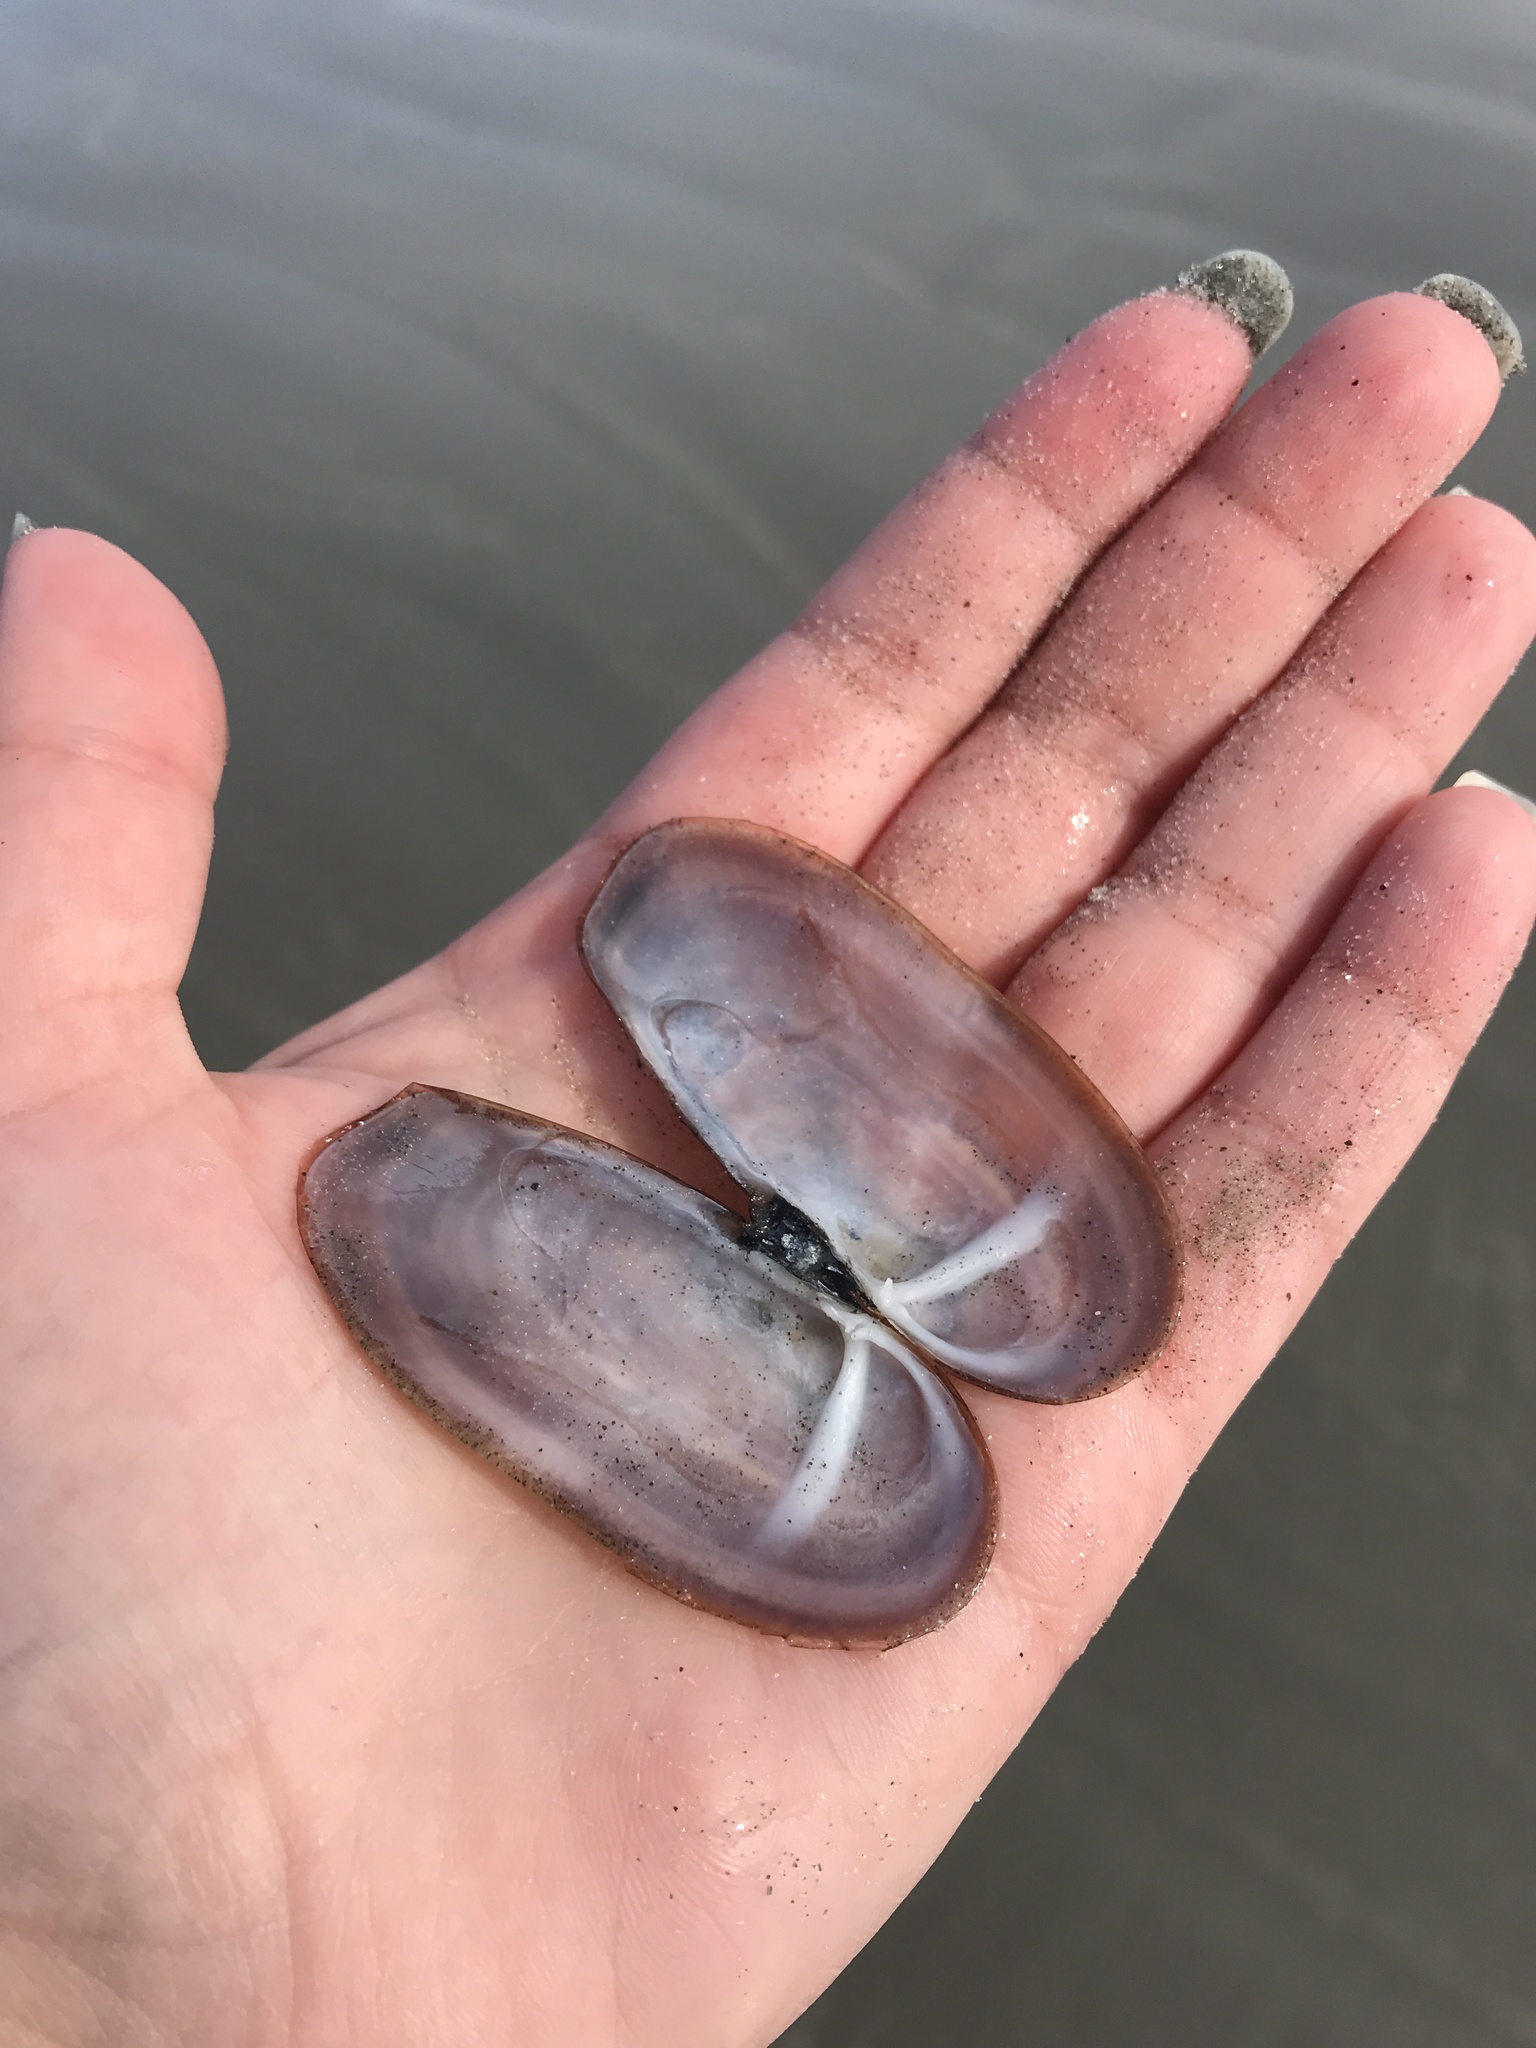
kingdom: Animalia
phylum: Mollusca
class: Bivalvia
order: Adapedonta
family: Pharidae
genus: Siliqua
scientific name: Siliqua costata
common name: Atlantic razor
